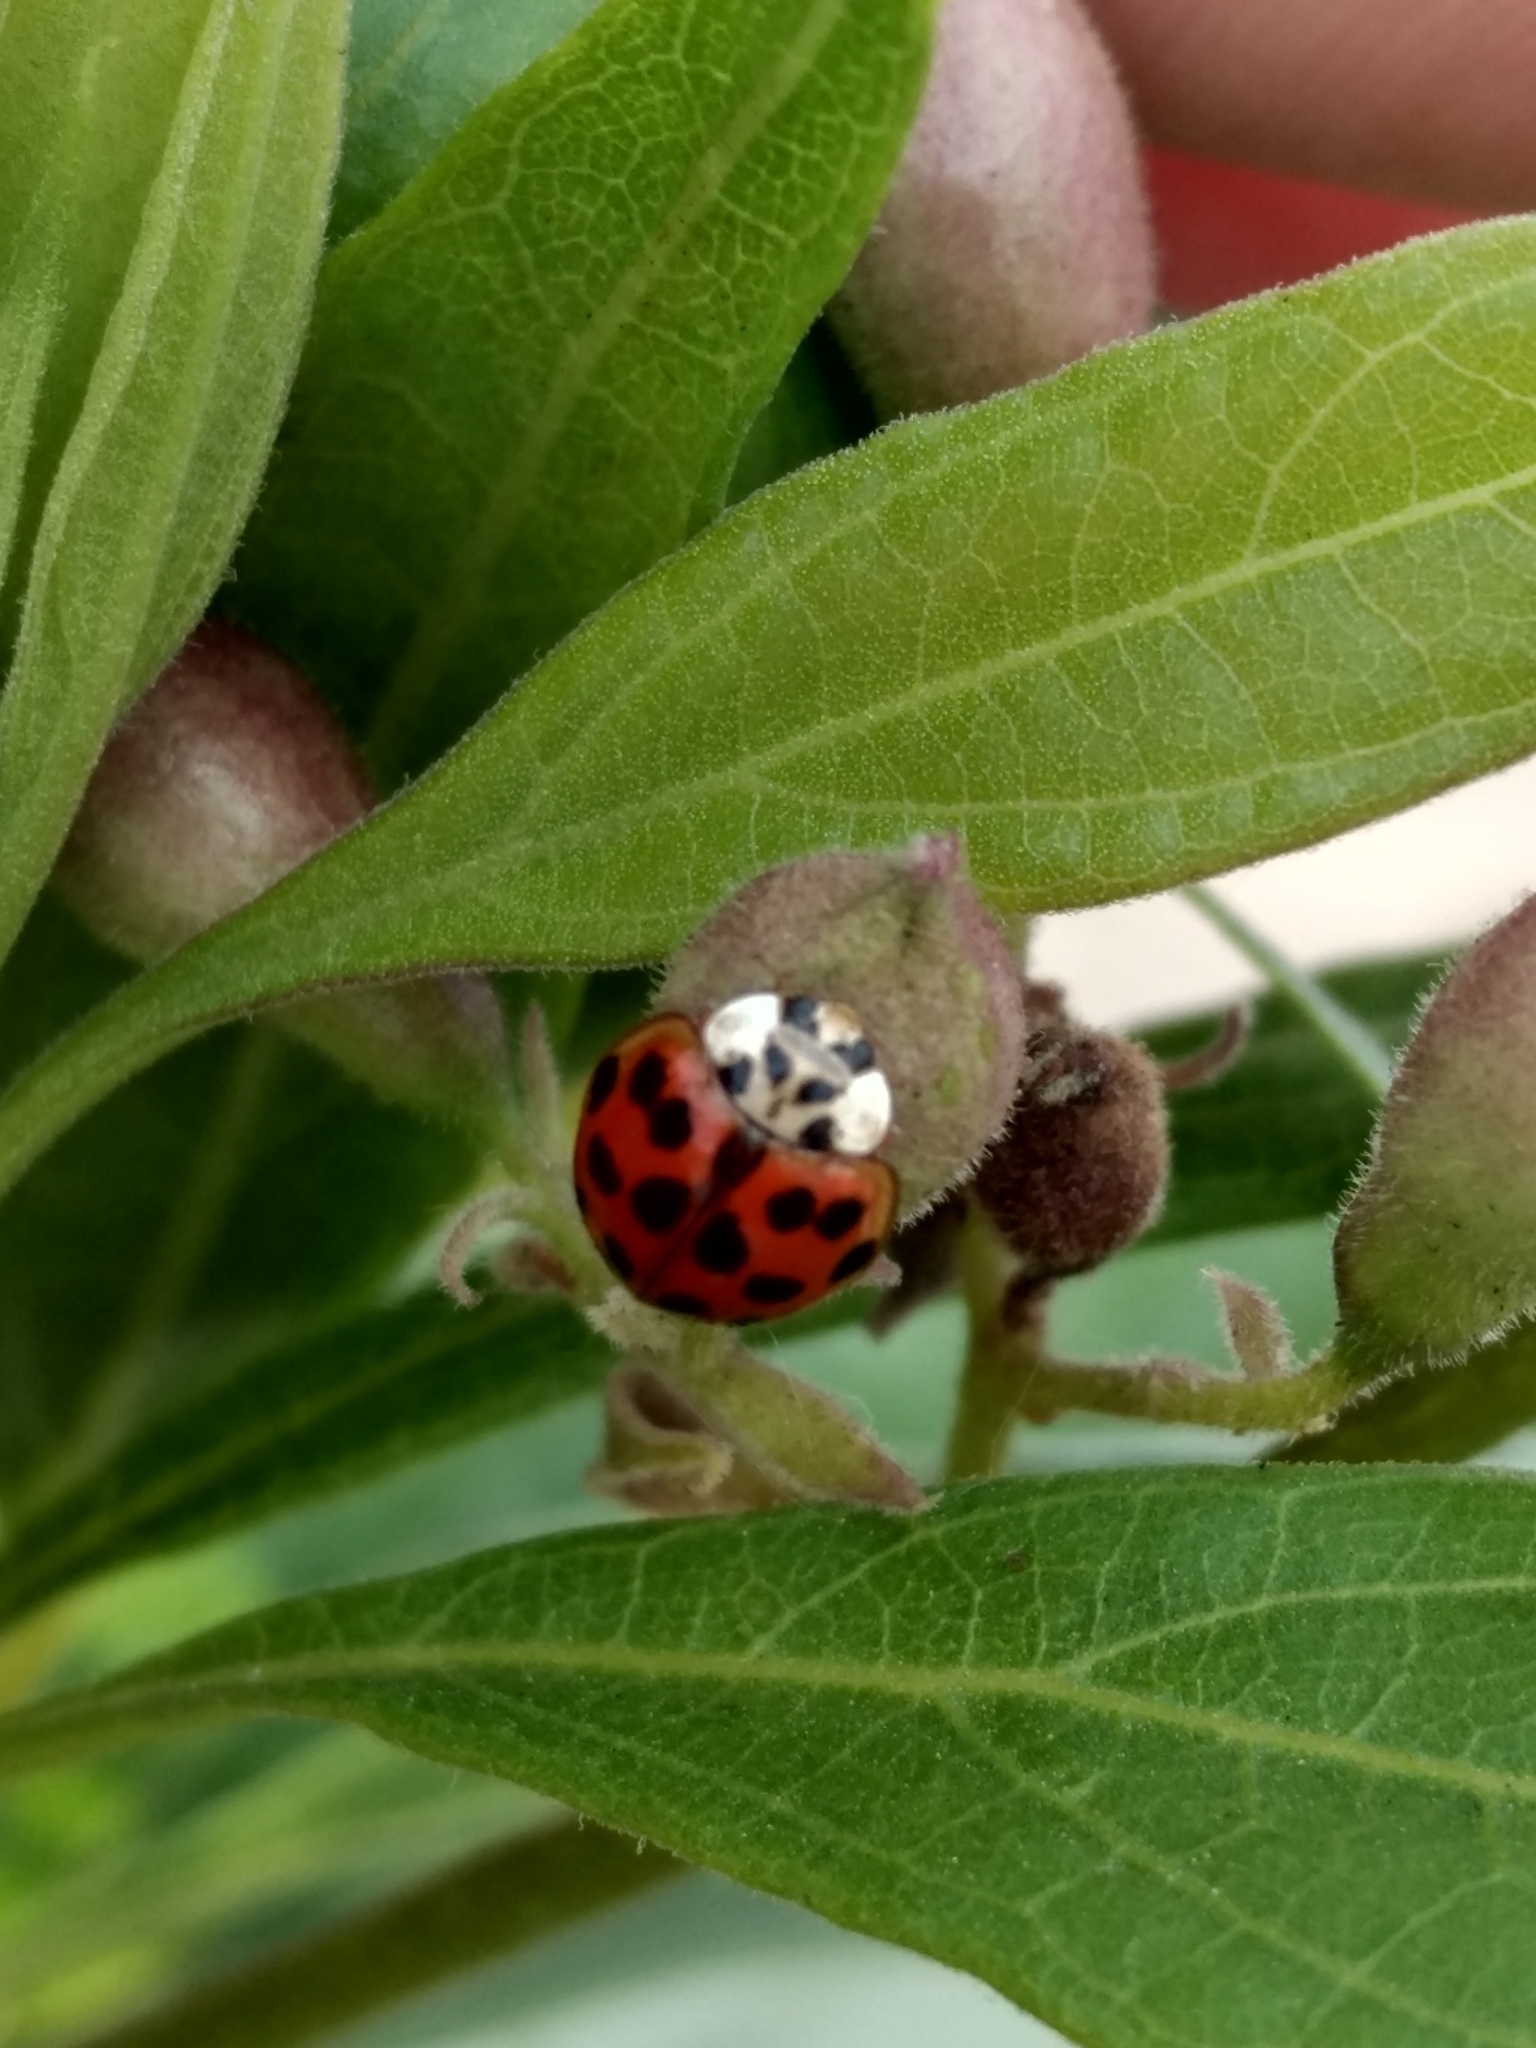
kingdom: Animalia
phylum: Arthropoda
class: Insecta
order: Coleoptera
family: Coccinellidae
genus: Harmonia
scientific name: Harmonia axyridis
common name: Harlequin ladybird
